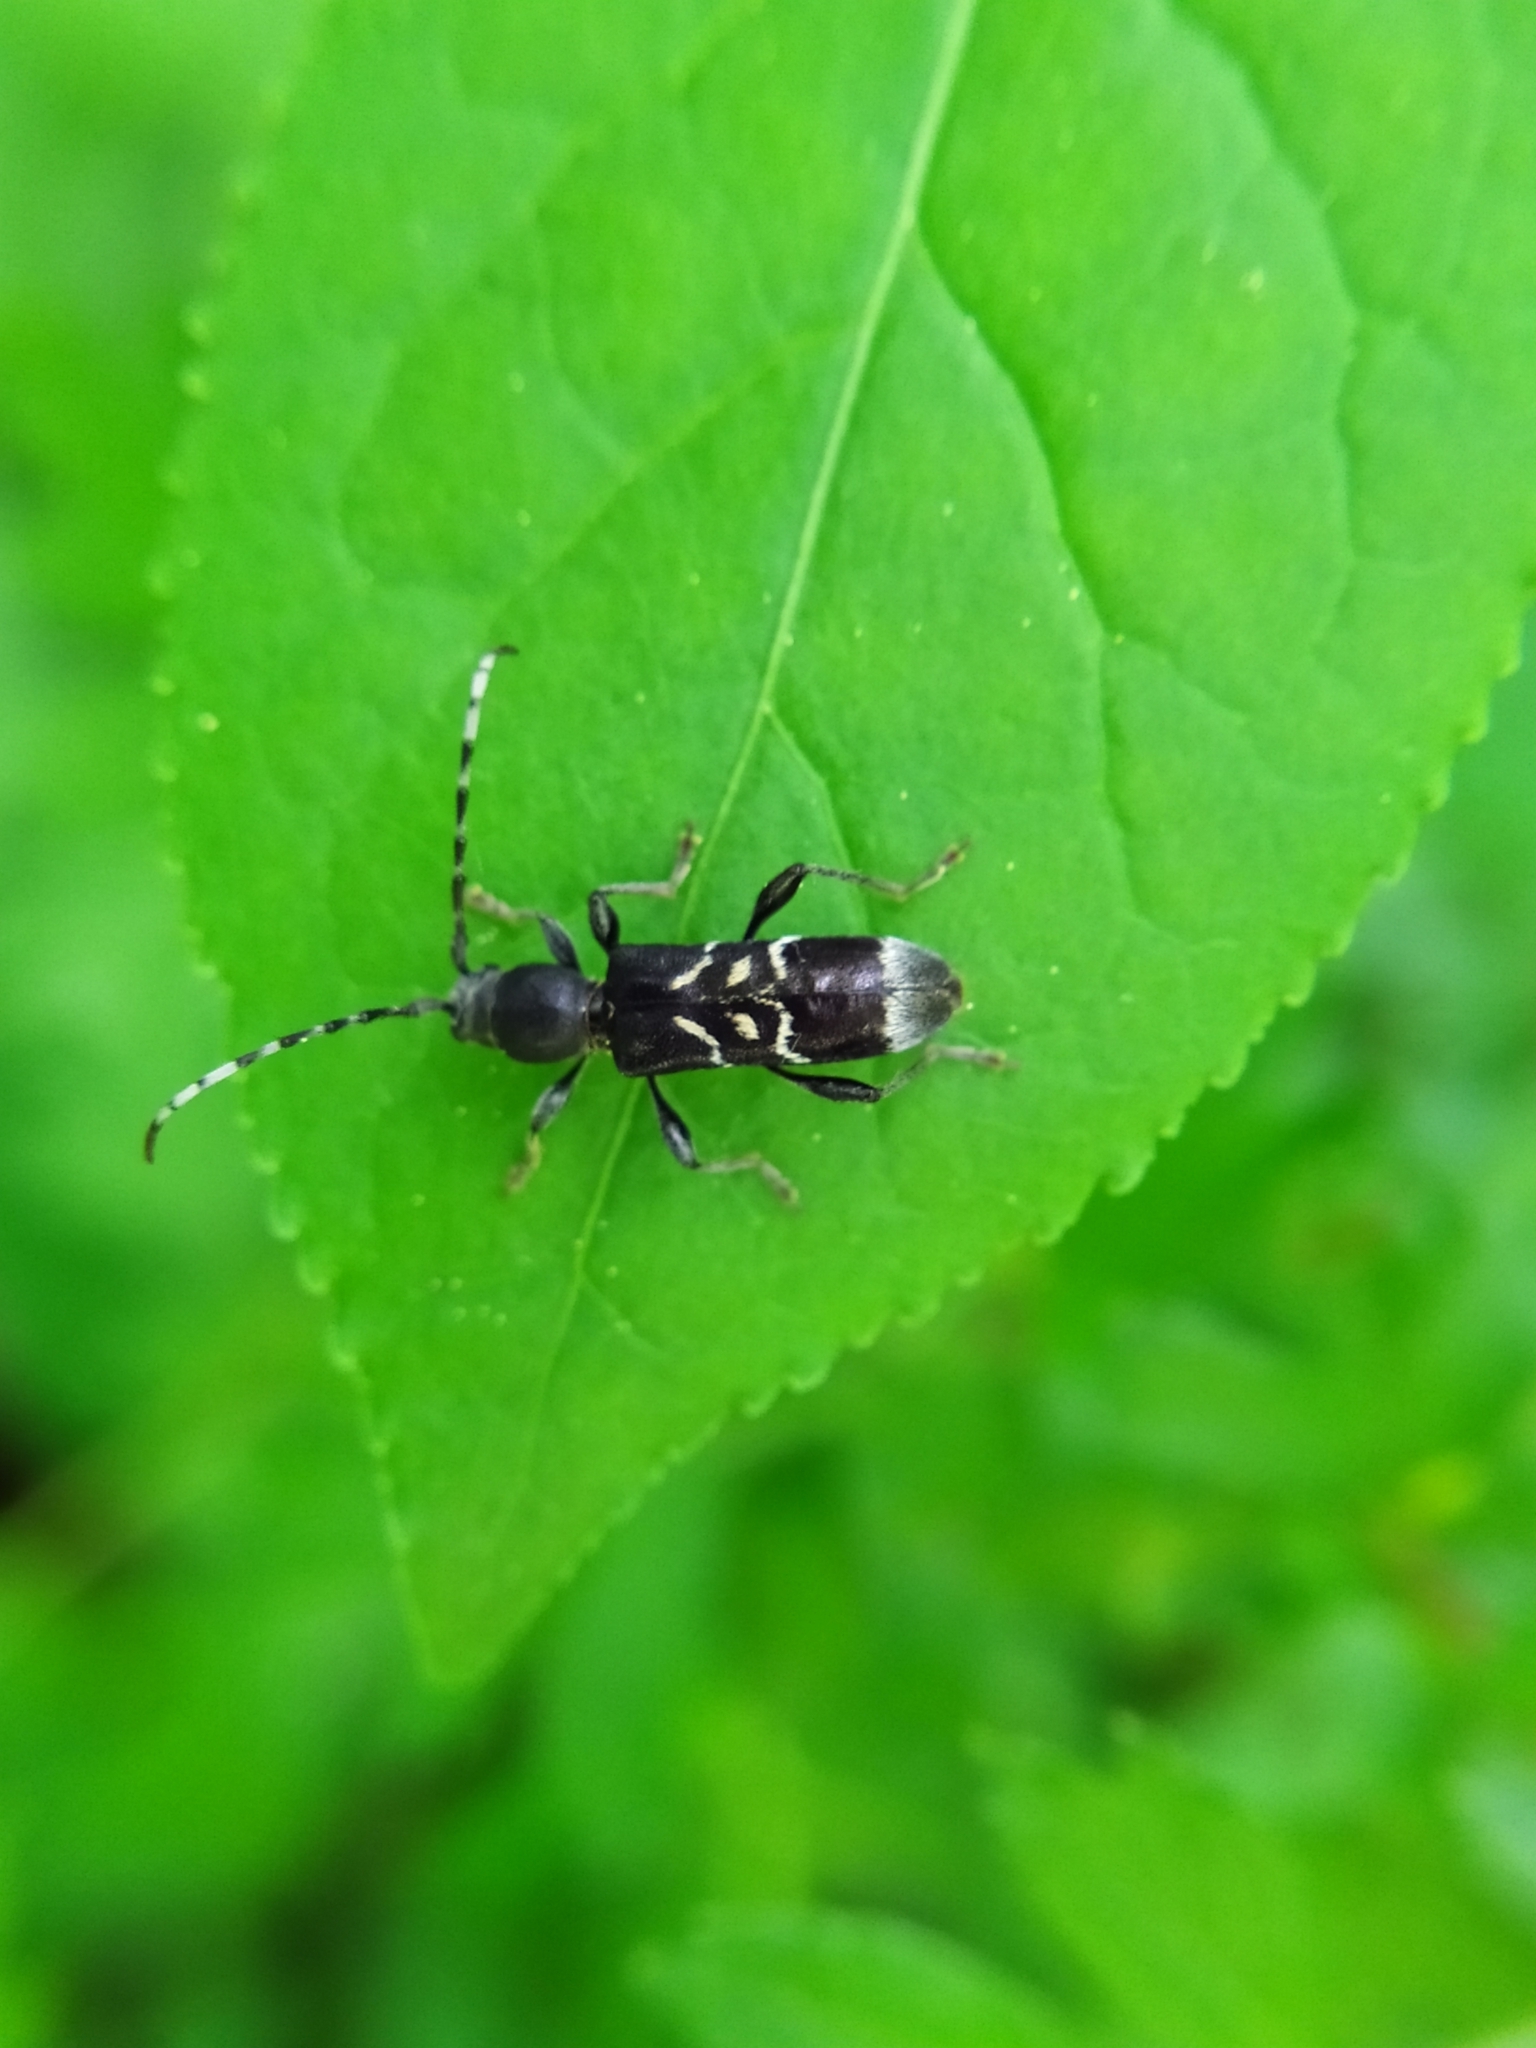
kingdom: Animalia
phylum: Arthropoda
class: Insecta
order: Coleoptera
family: Cerambycidae
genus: Anaglyptus
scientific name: Anaglyptus mysticus
